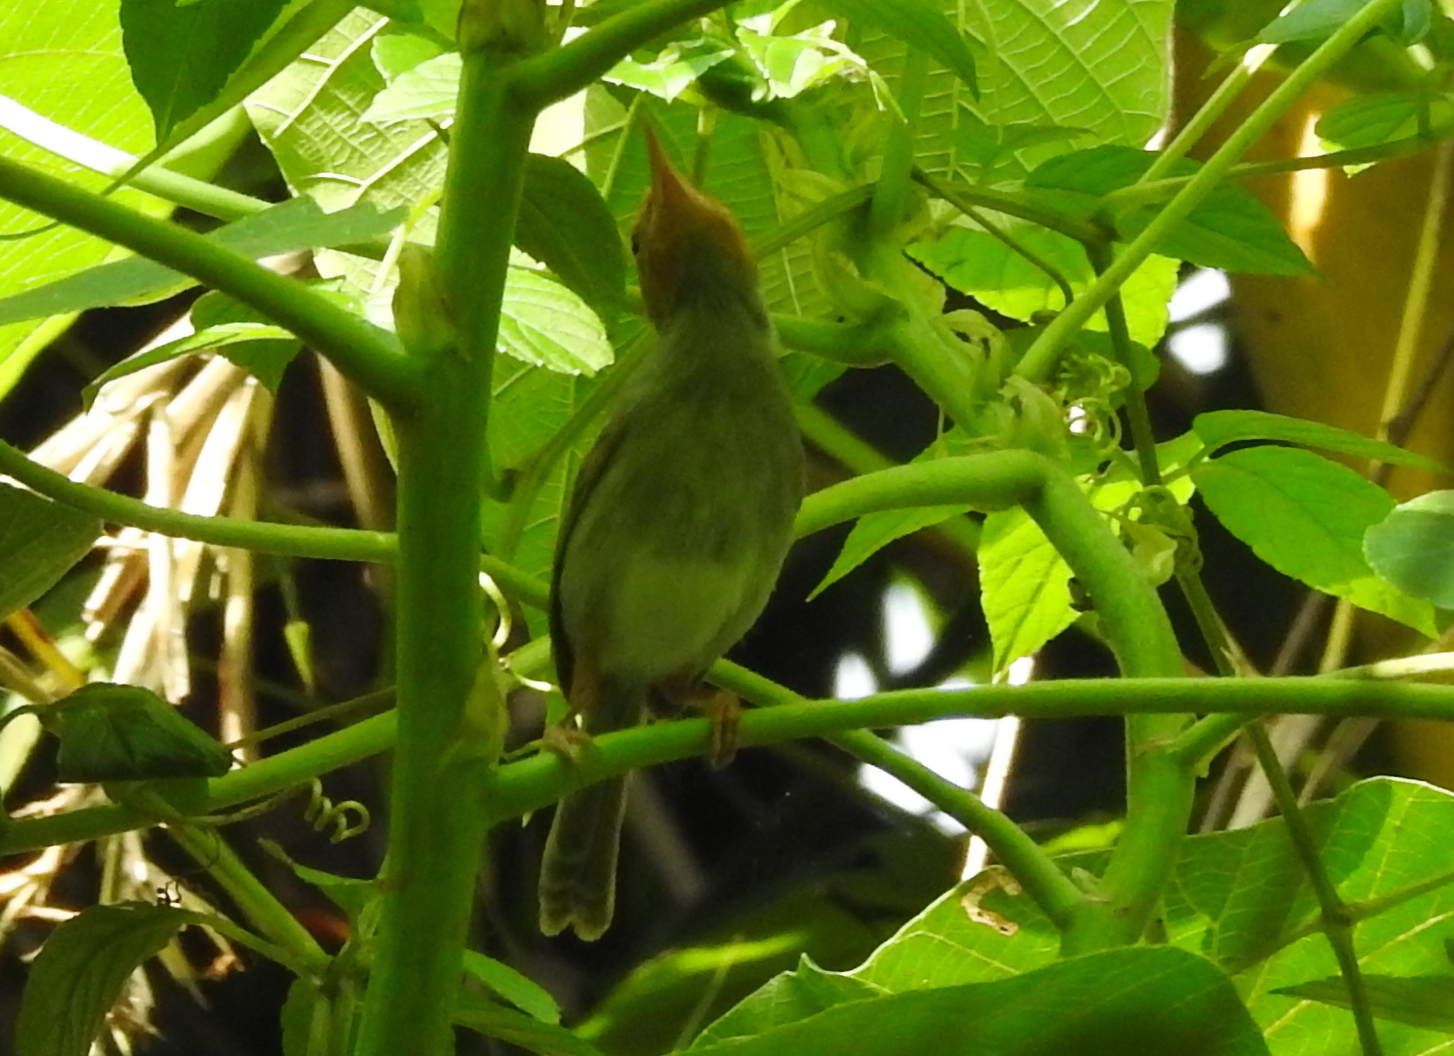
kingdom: Animalia
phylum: Chordata
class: Aves
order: Passeriformes
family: Cisticolidae
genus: Orthotomus
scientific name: Orthotomus ruficeps
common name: Ashy tailorbird
